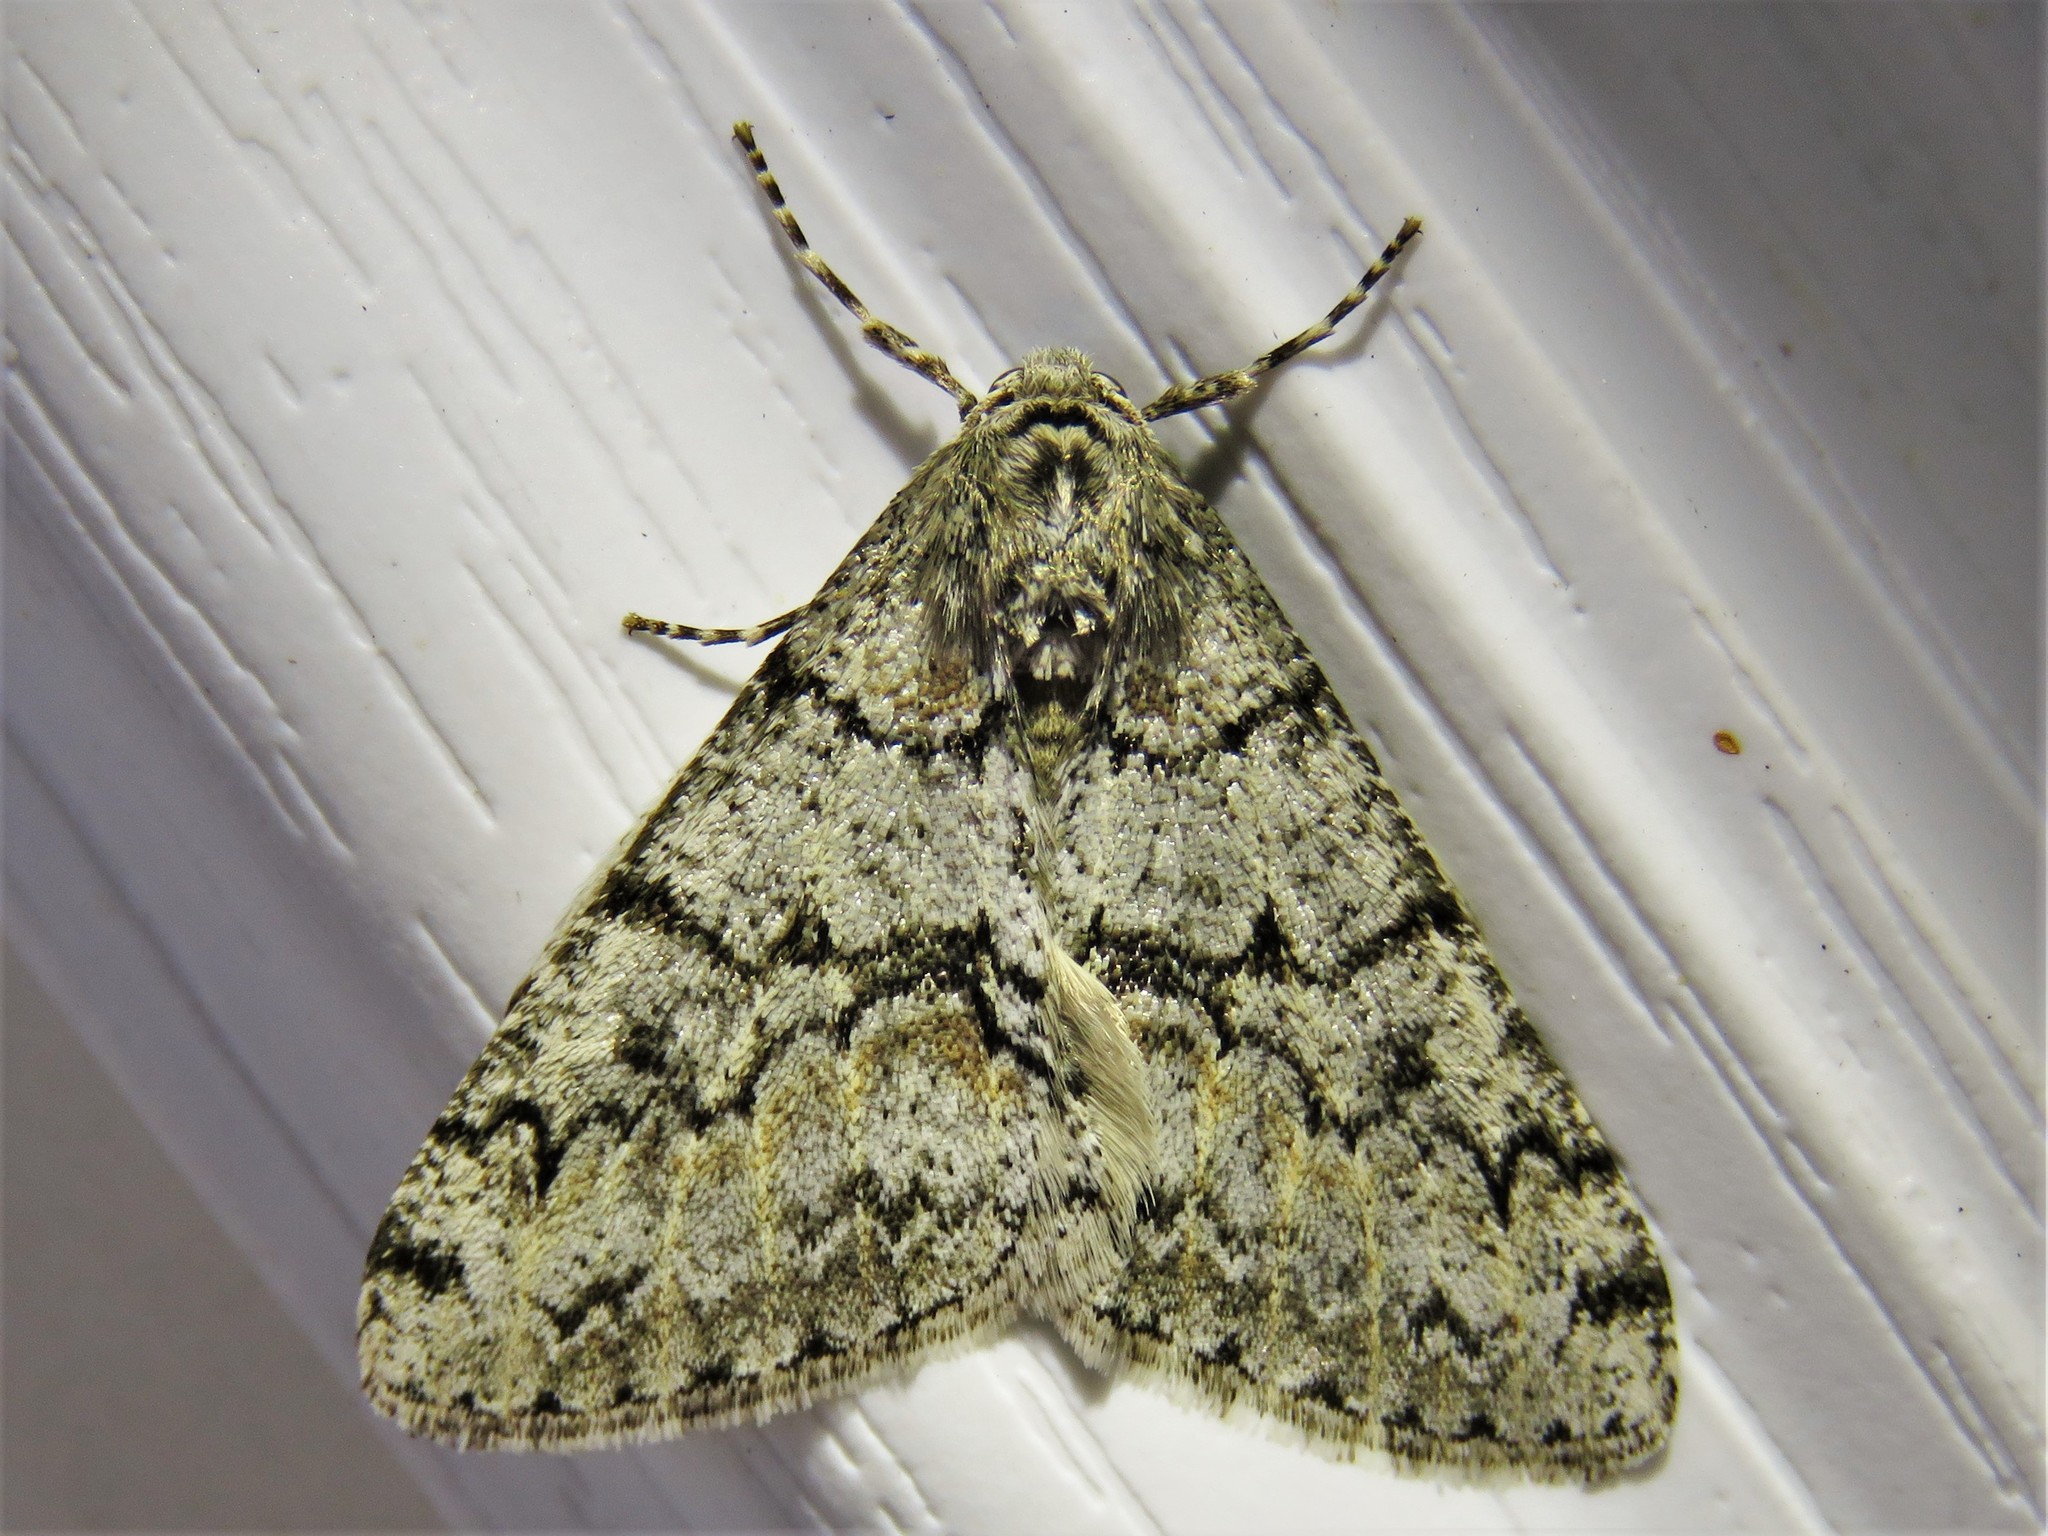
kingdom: Animalia
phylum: Arthropoda
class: Insecta
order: Lepidoptera
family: Geometridae
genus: Phigalia
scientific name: Phigalia denticulata
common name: Toothed phigalia
